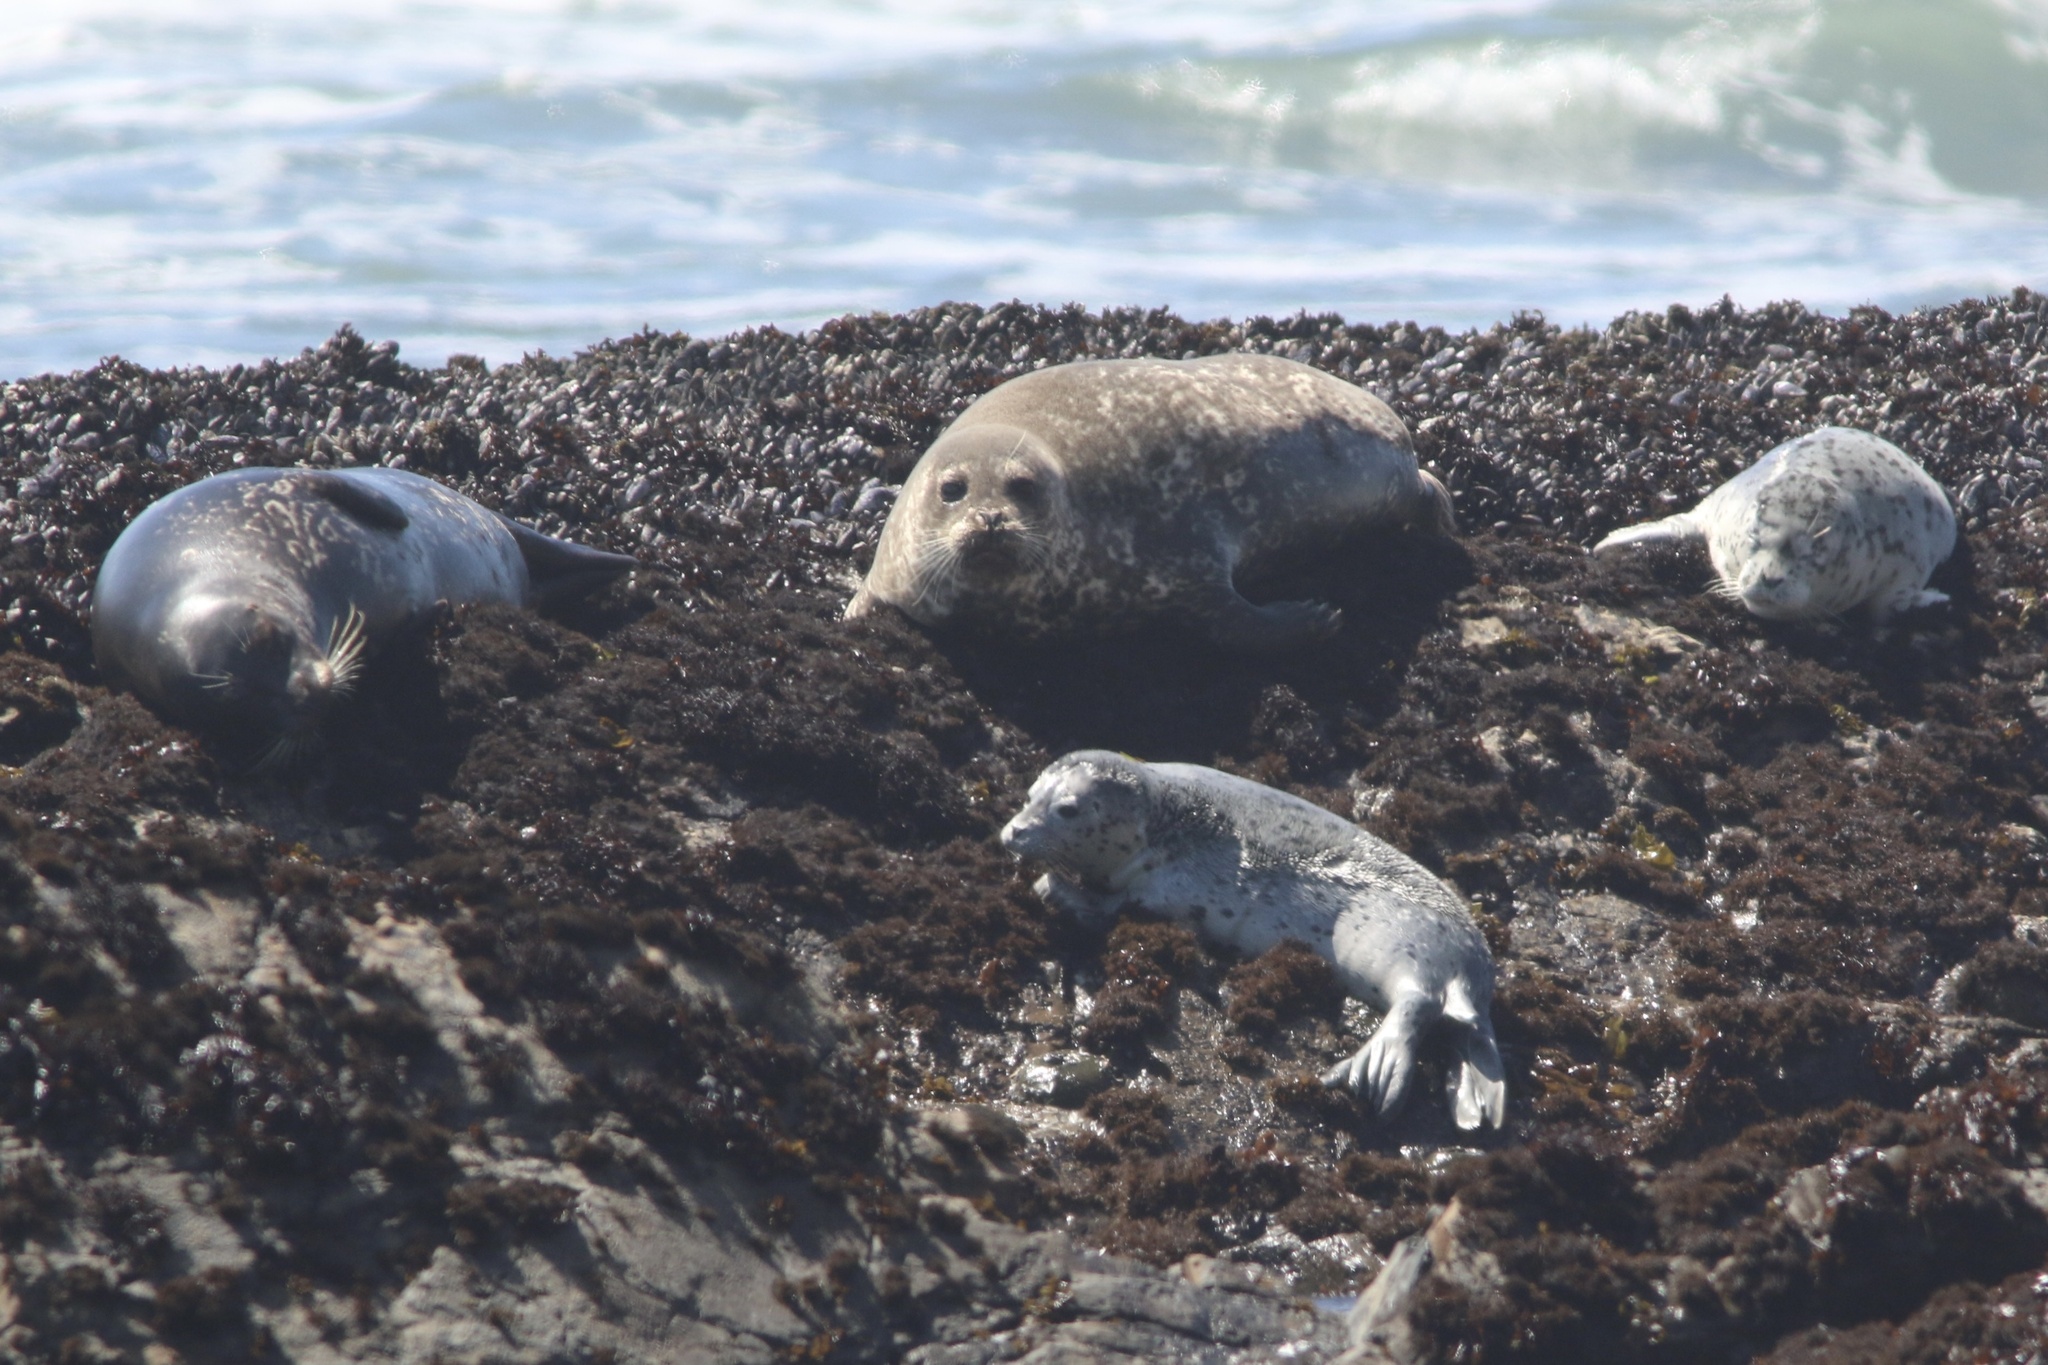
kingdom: Animalia
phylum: Chordata
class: Mammalia
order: Carnivora
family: Phocidae
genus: Phoca
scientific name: Phoca vitulina
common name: Harbor seal
